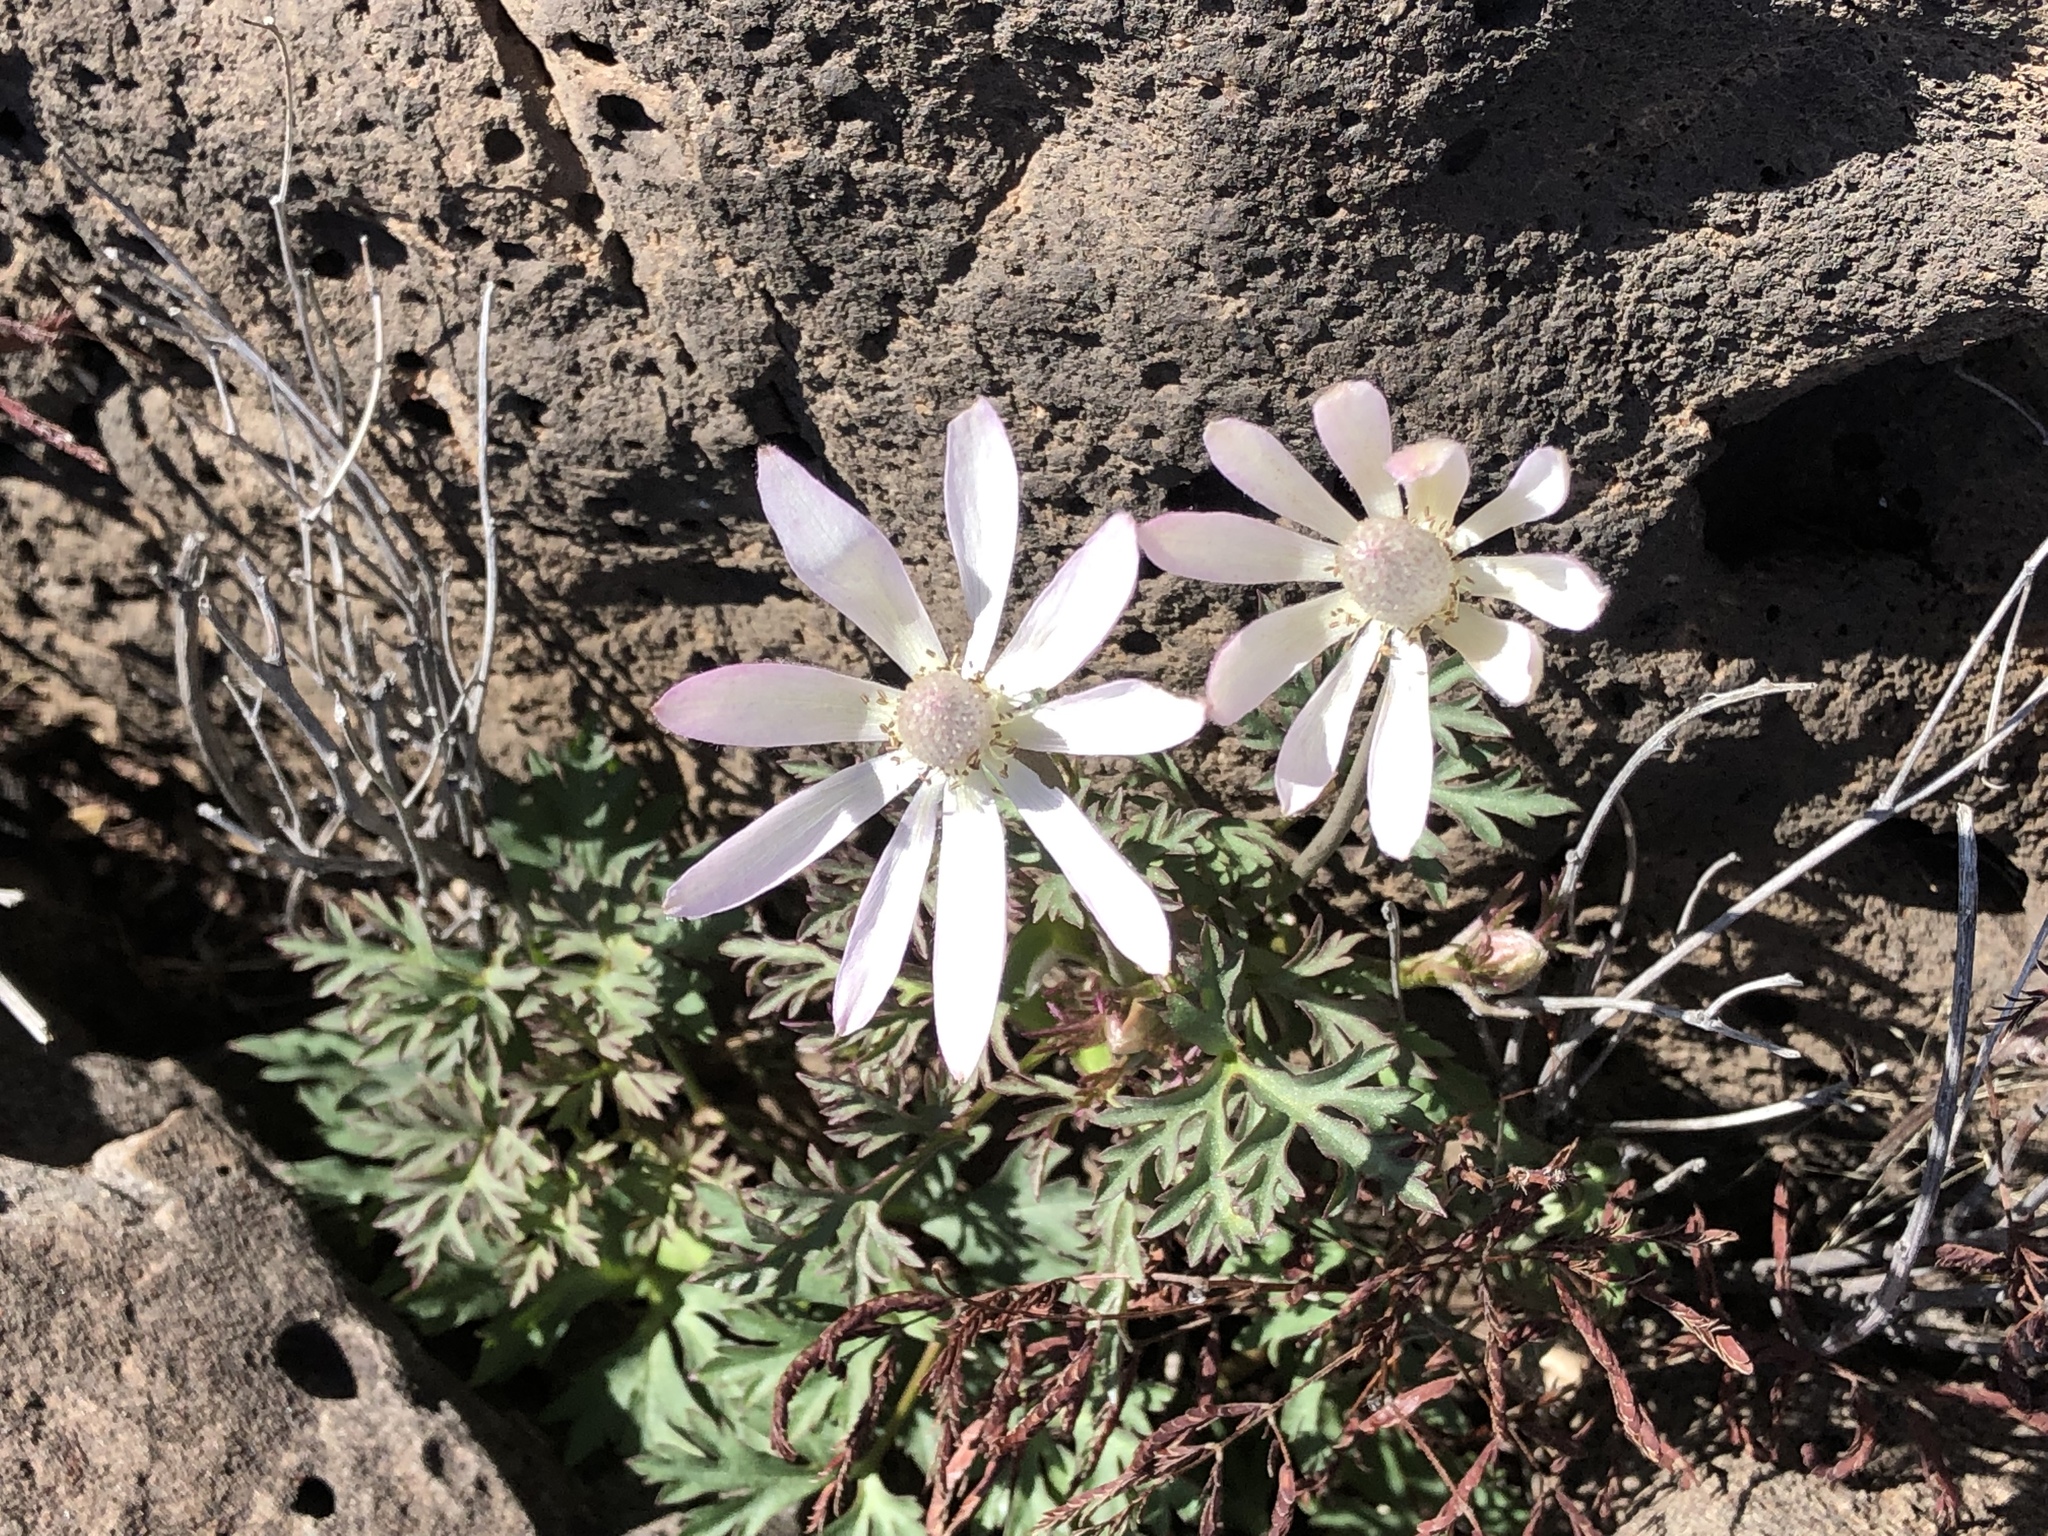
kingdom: Plantae
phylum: Tracheophyta
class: Magnoliopsida
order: Ranunculales
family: Ranunculaceae
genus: Anemone
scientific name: Anemone tuberosa
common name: Desert anemone
